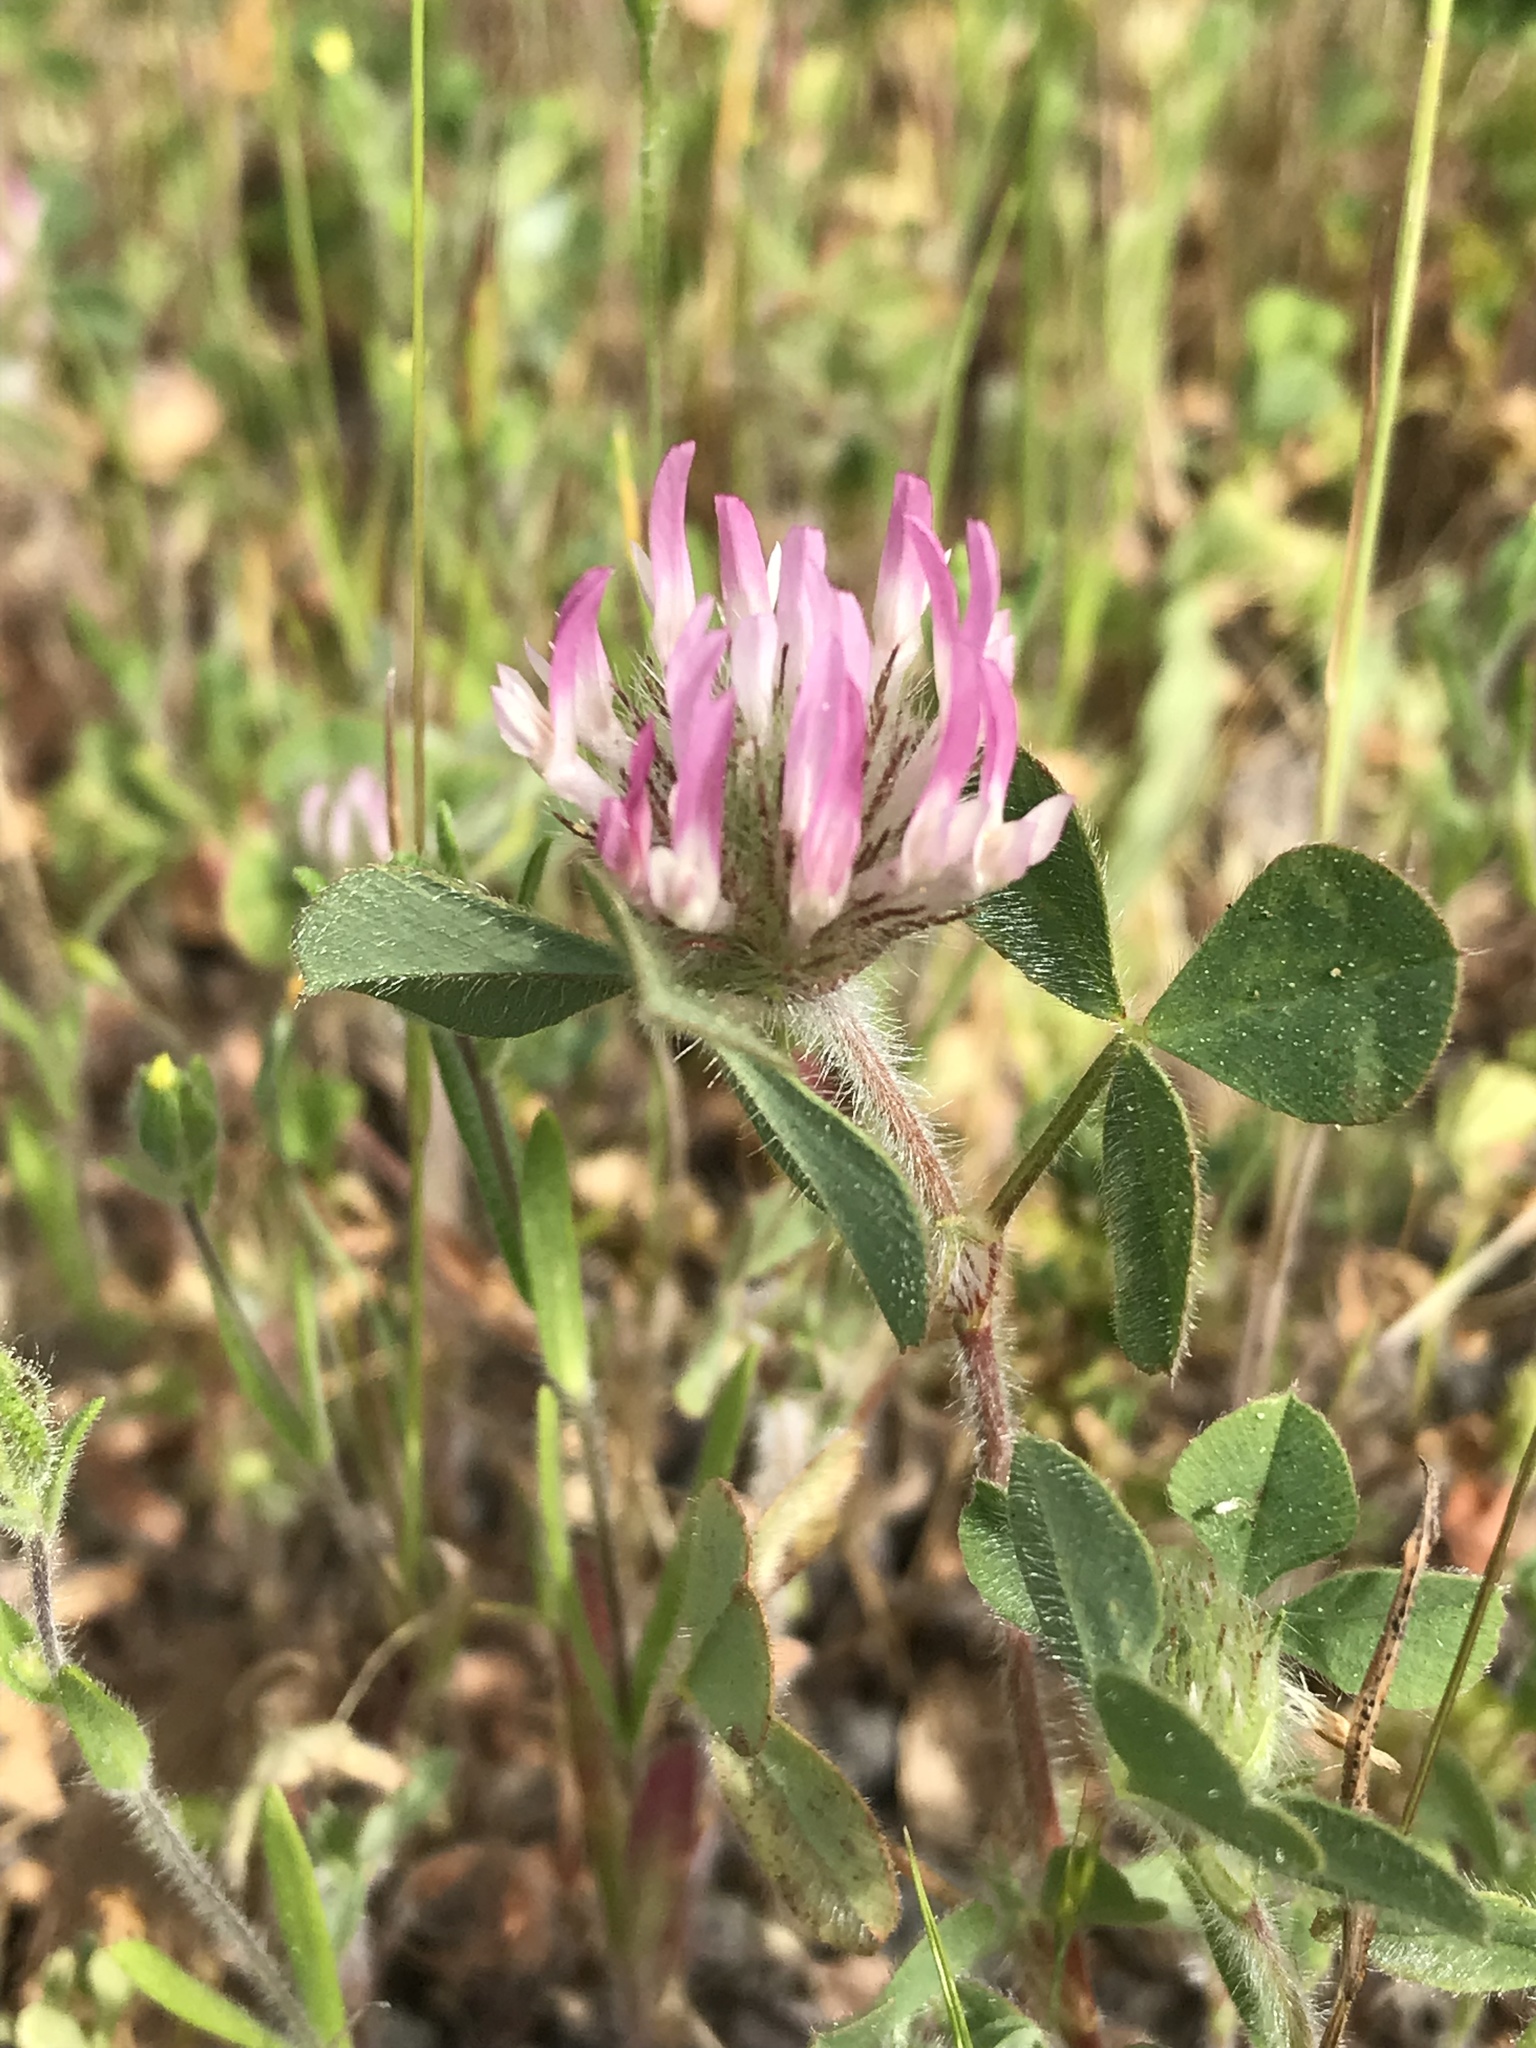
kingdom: Plantae
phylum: Tracheophyta
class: Magnoliopsida
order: Fabales
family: Fabaceae
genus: Trifolium
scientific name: Trifolium hirtum
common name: Rose clover
